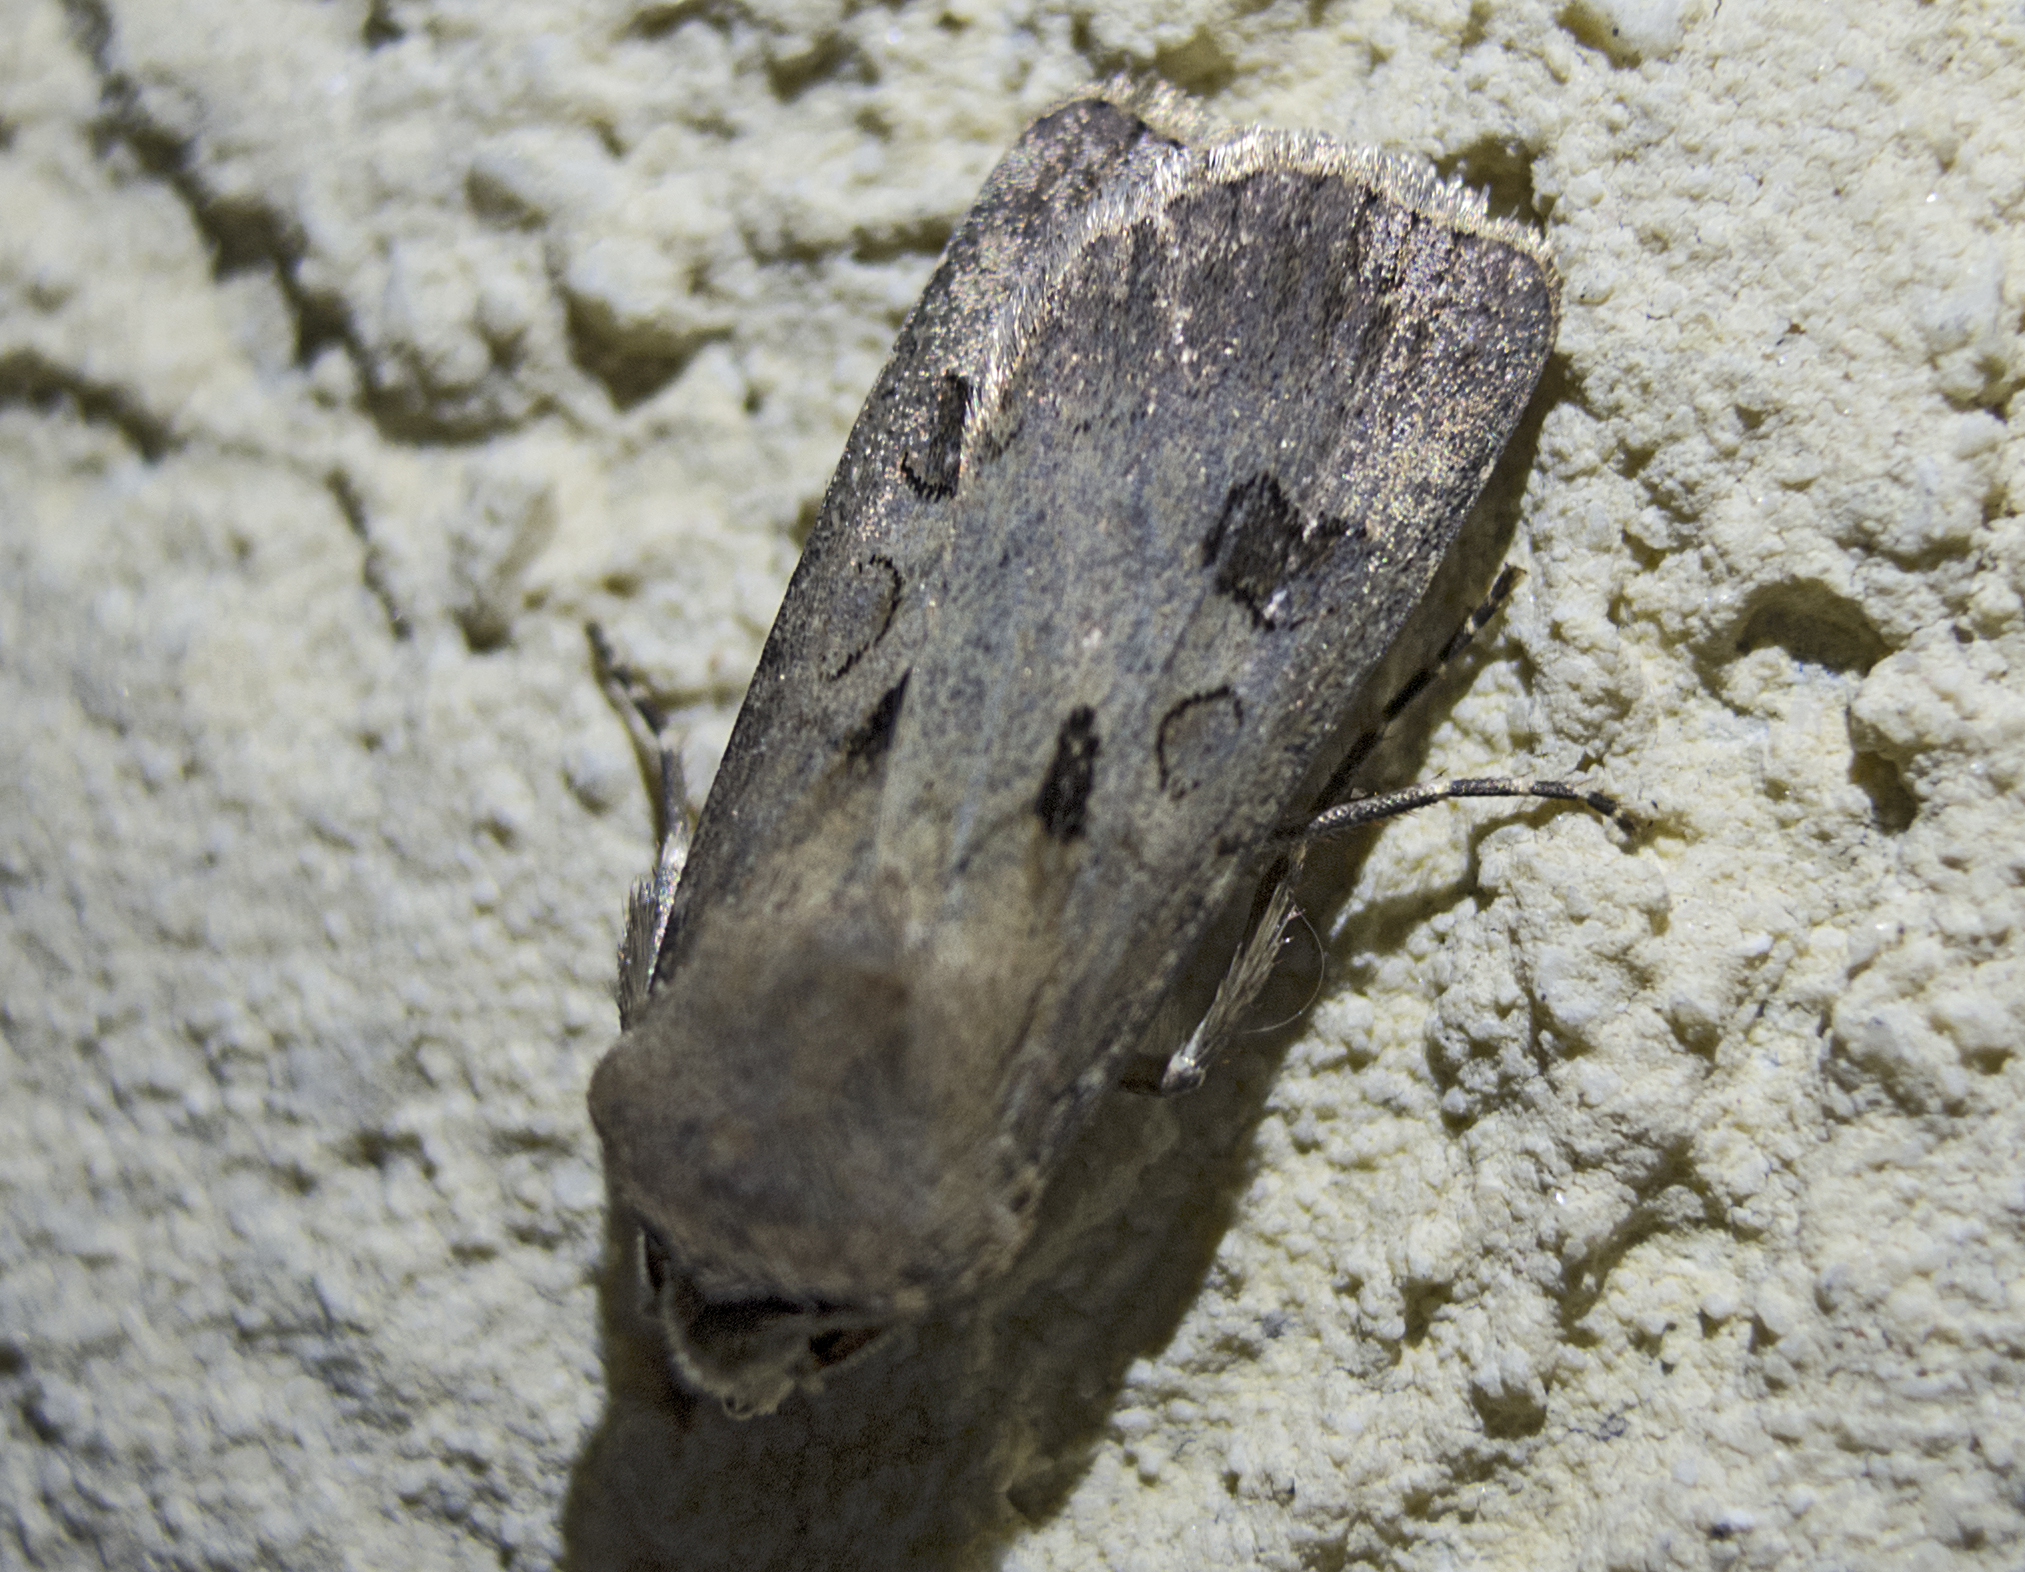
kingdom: Animalia
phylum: Arthropoda
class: Insecta
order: Lepidoptera
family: Noctuidae
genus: Agrotis
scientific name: Agrotis exclamationis
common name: Heart and dart
